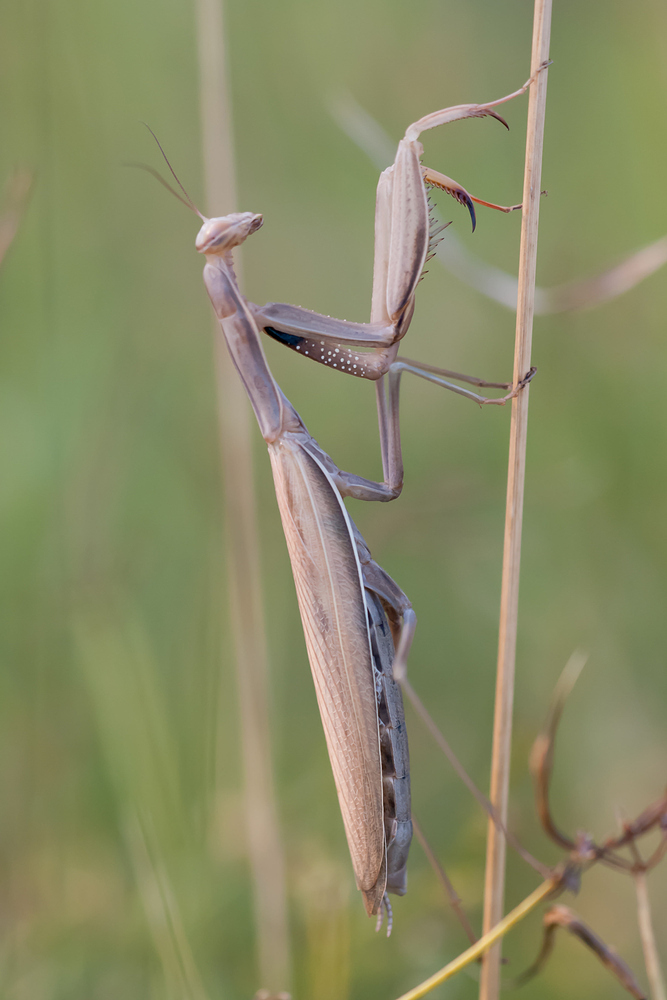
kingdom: Animalia
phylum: Arthropoda
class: Insecta
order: Mantodea
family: Mantidae
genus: Mantis
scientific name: Mantis religiosa
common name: Praying mantis
